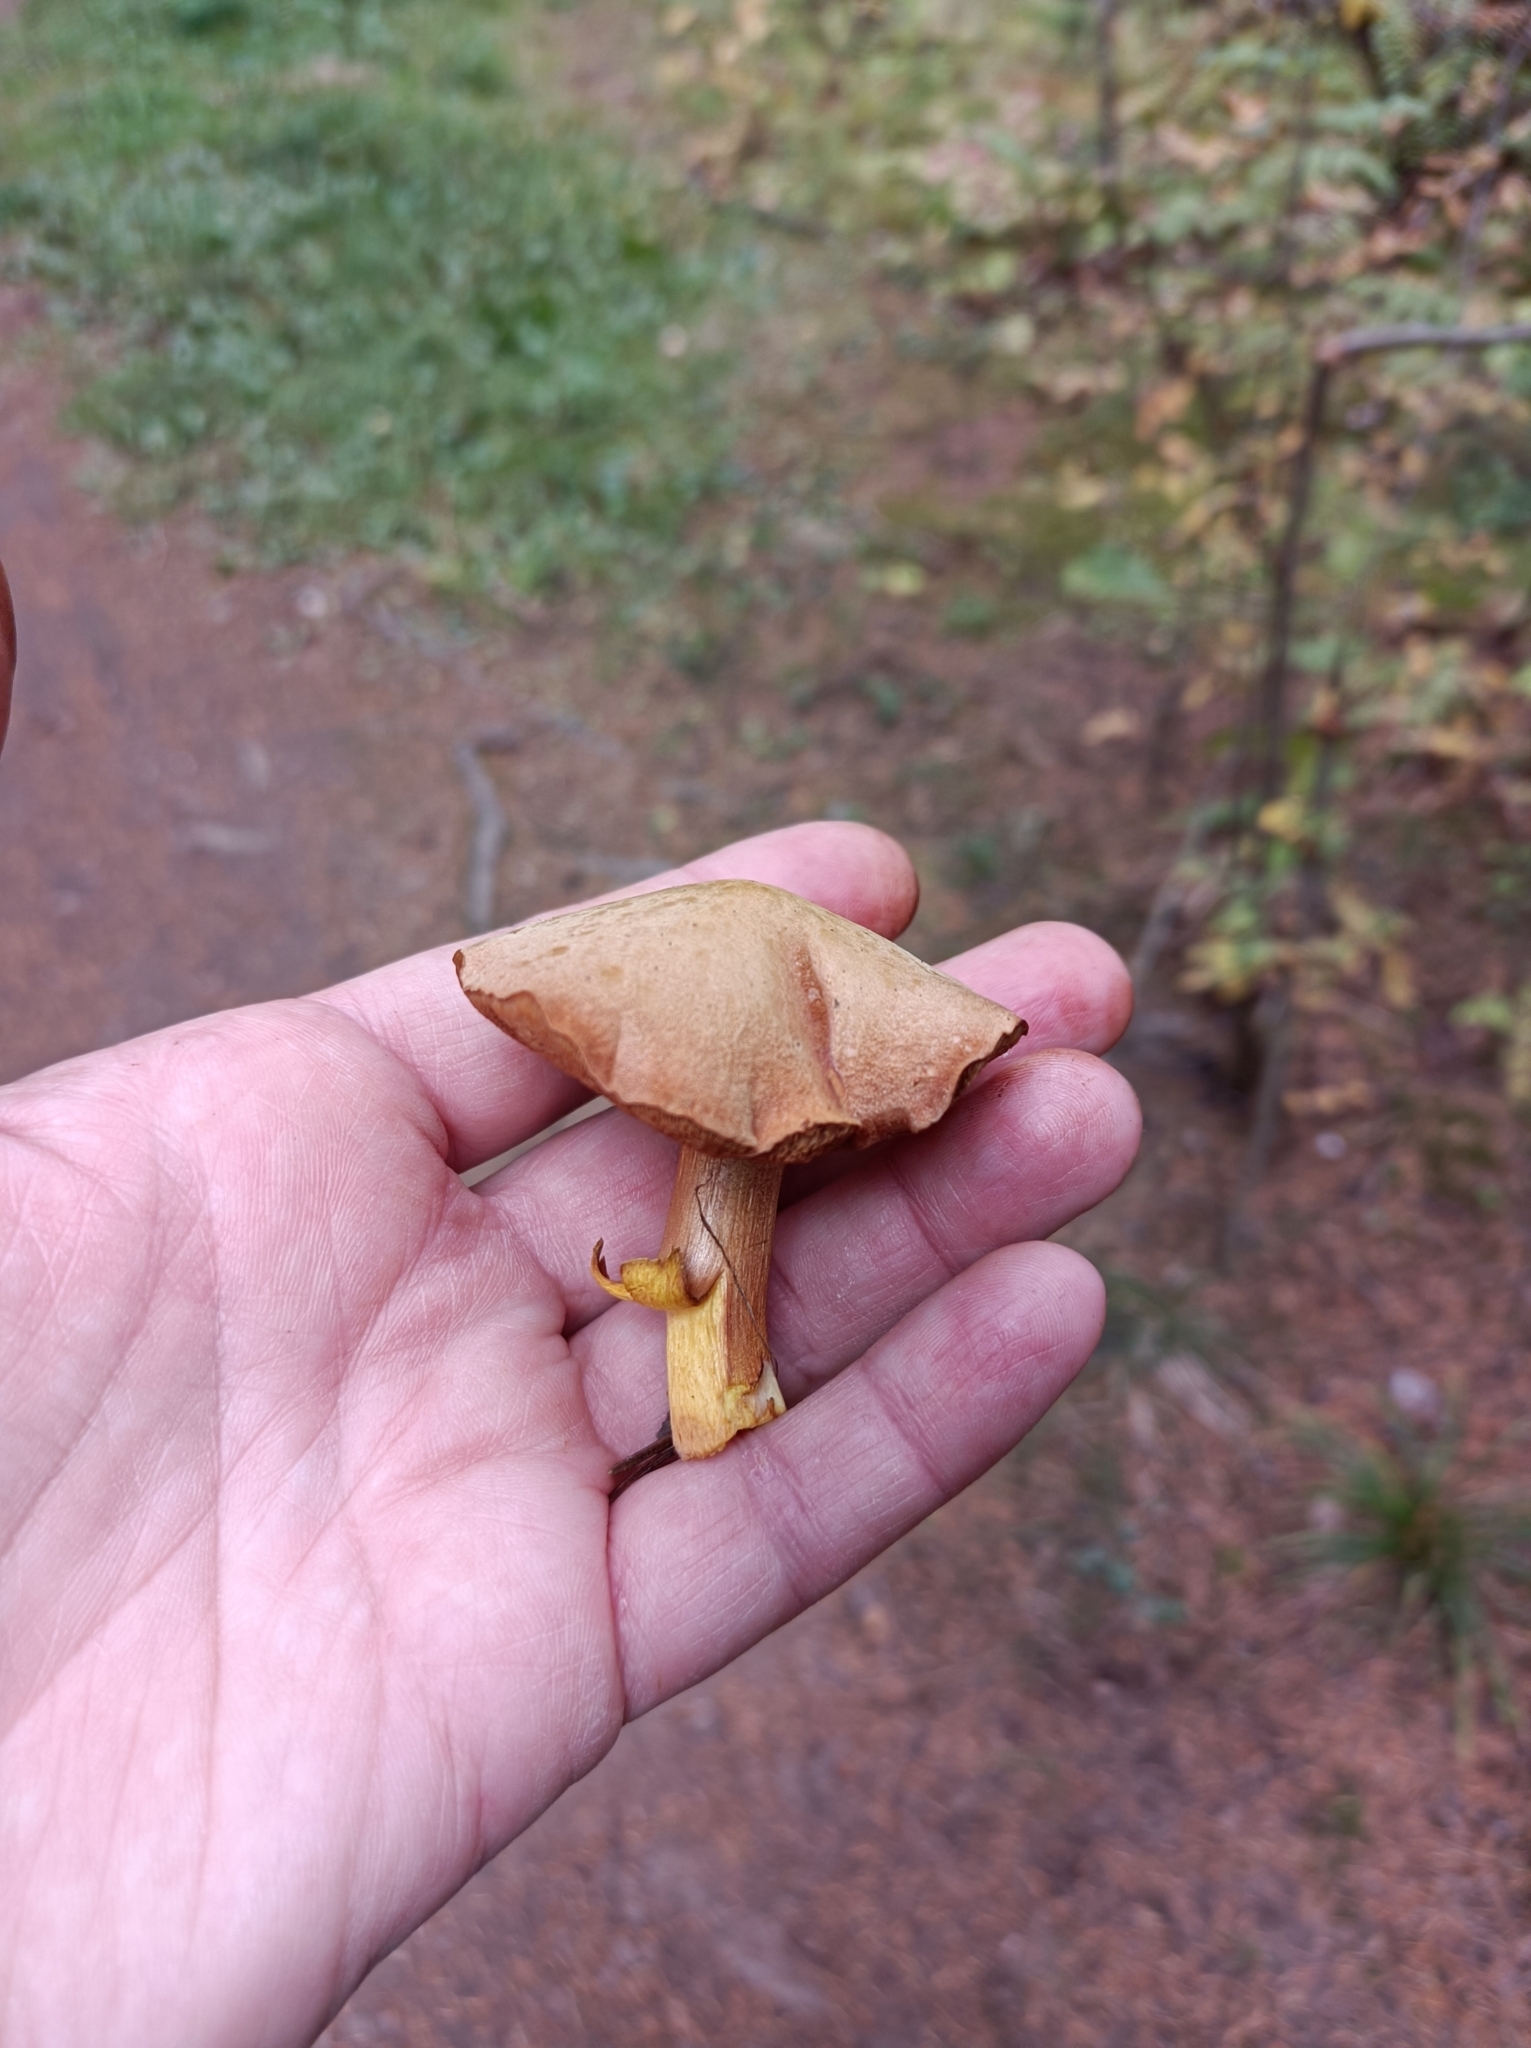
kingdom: Fungi
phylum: Basidiomycota
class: Agaricomycetes
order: Boletales
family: Boletaceae
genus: Chalciporus
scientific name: Chalciporus piperatus
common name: Peppery bolete
